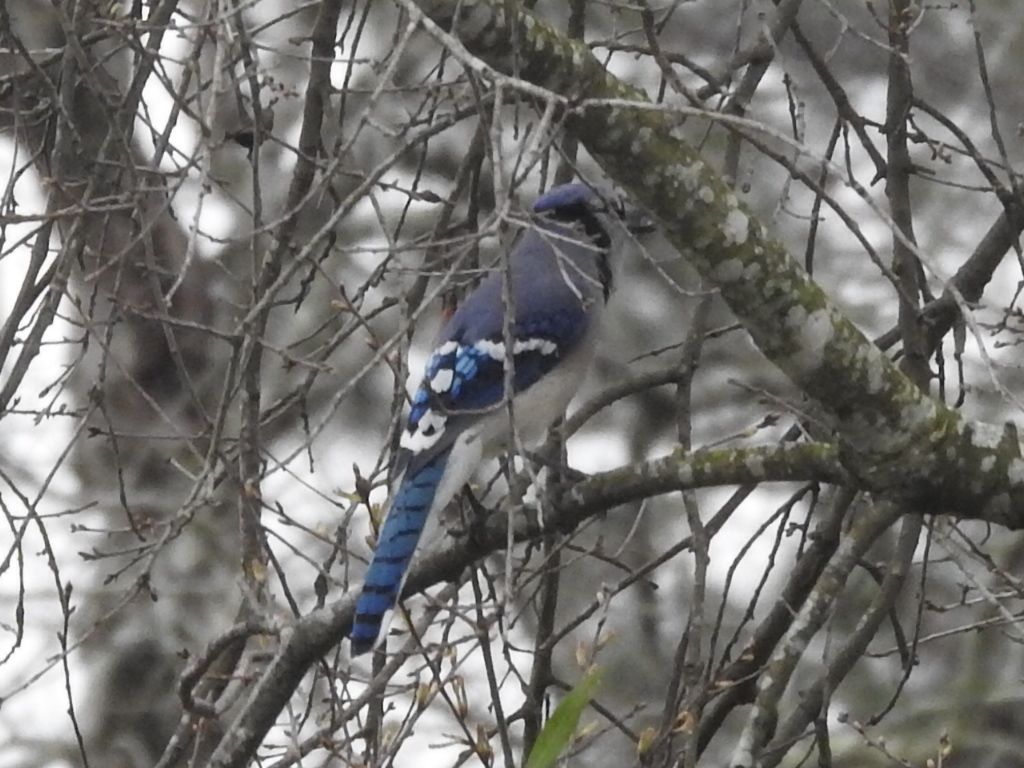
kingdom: Animalia
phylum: Chordata
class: Aves
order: Passeriformes
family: Corvidae
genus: Cyanocitta
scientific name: Cyanocitta cristata
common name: Blue jay
